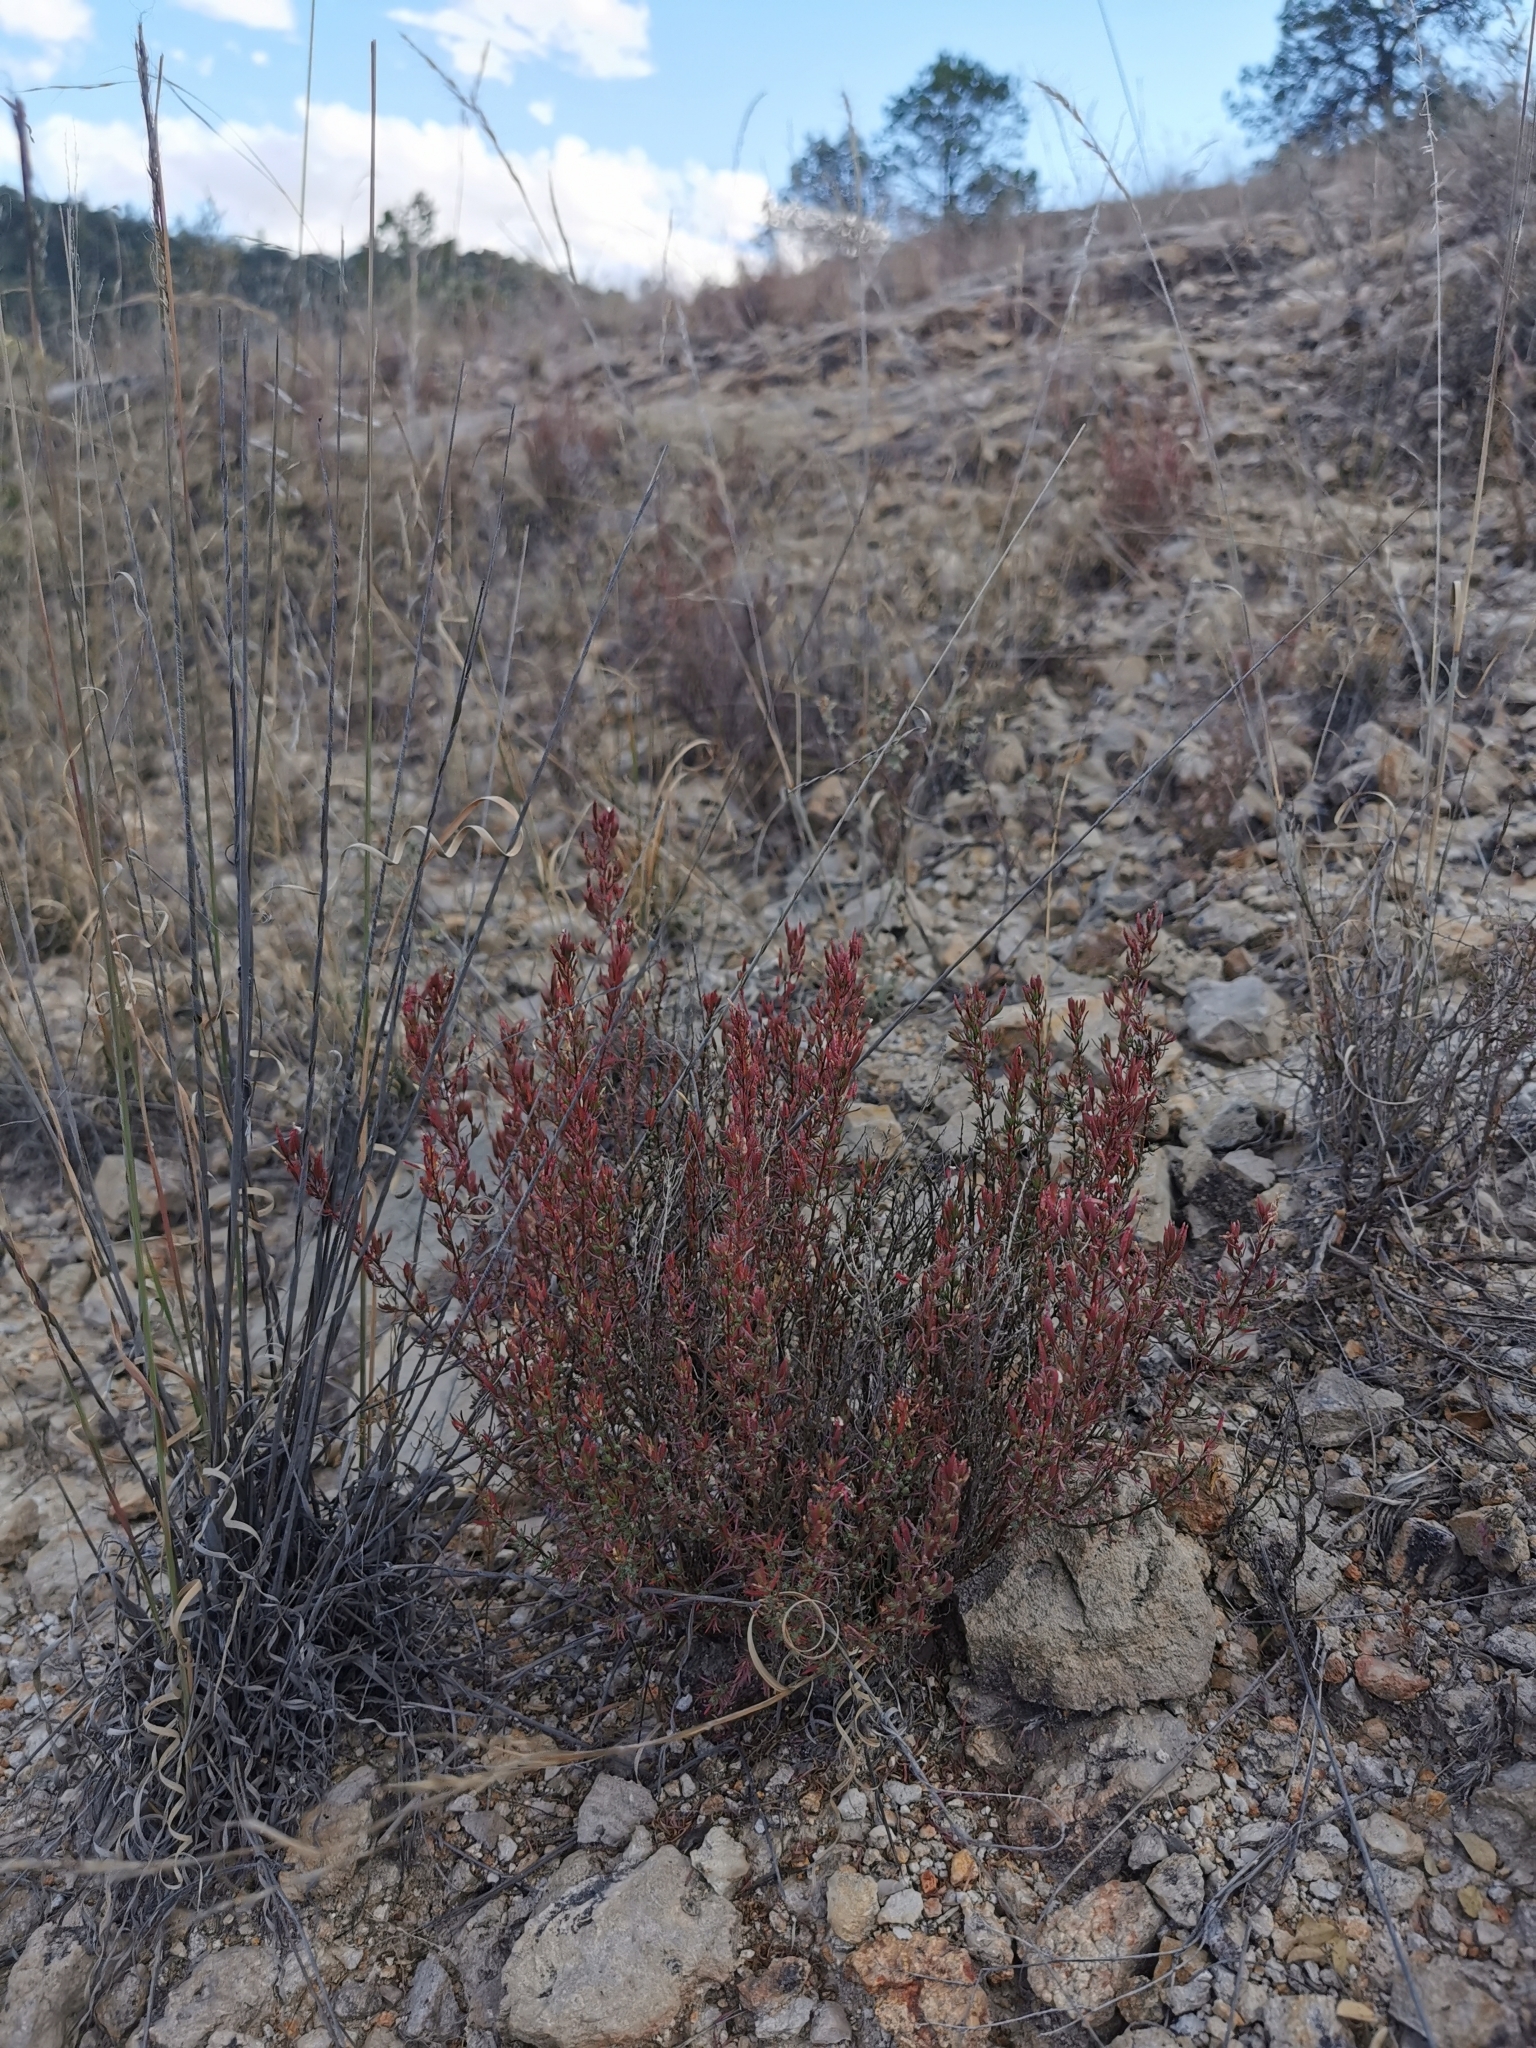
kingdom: Plantae
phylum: Tracheophyta
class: Magnoliopsida
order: Myrtales
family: Onagraceae
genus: Megacorax
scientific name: Megacorax gracielanus
